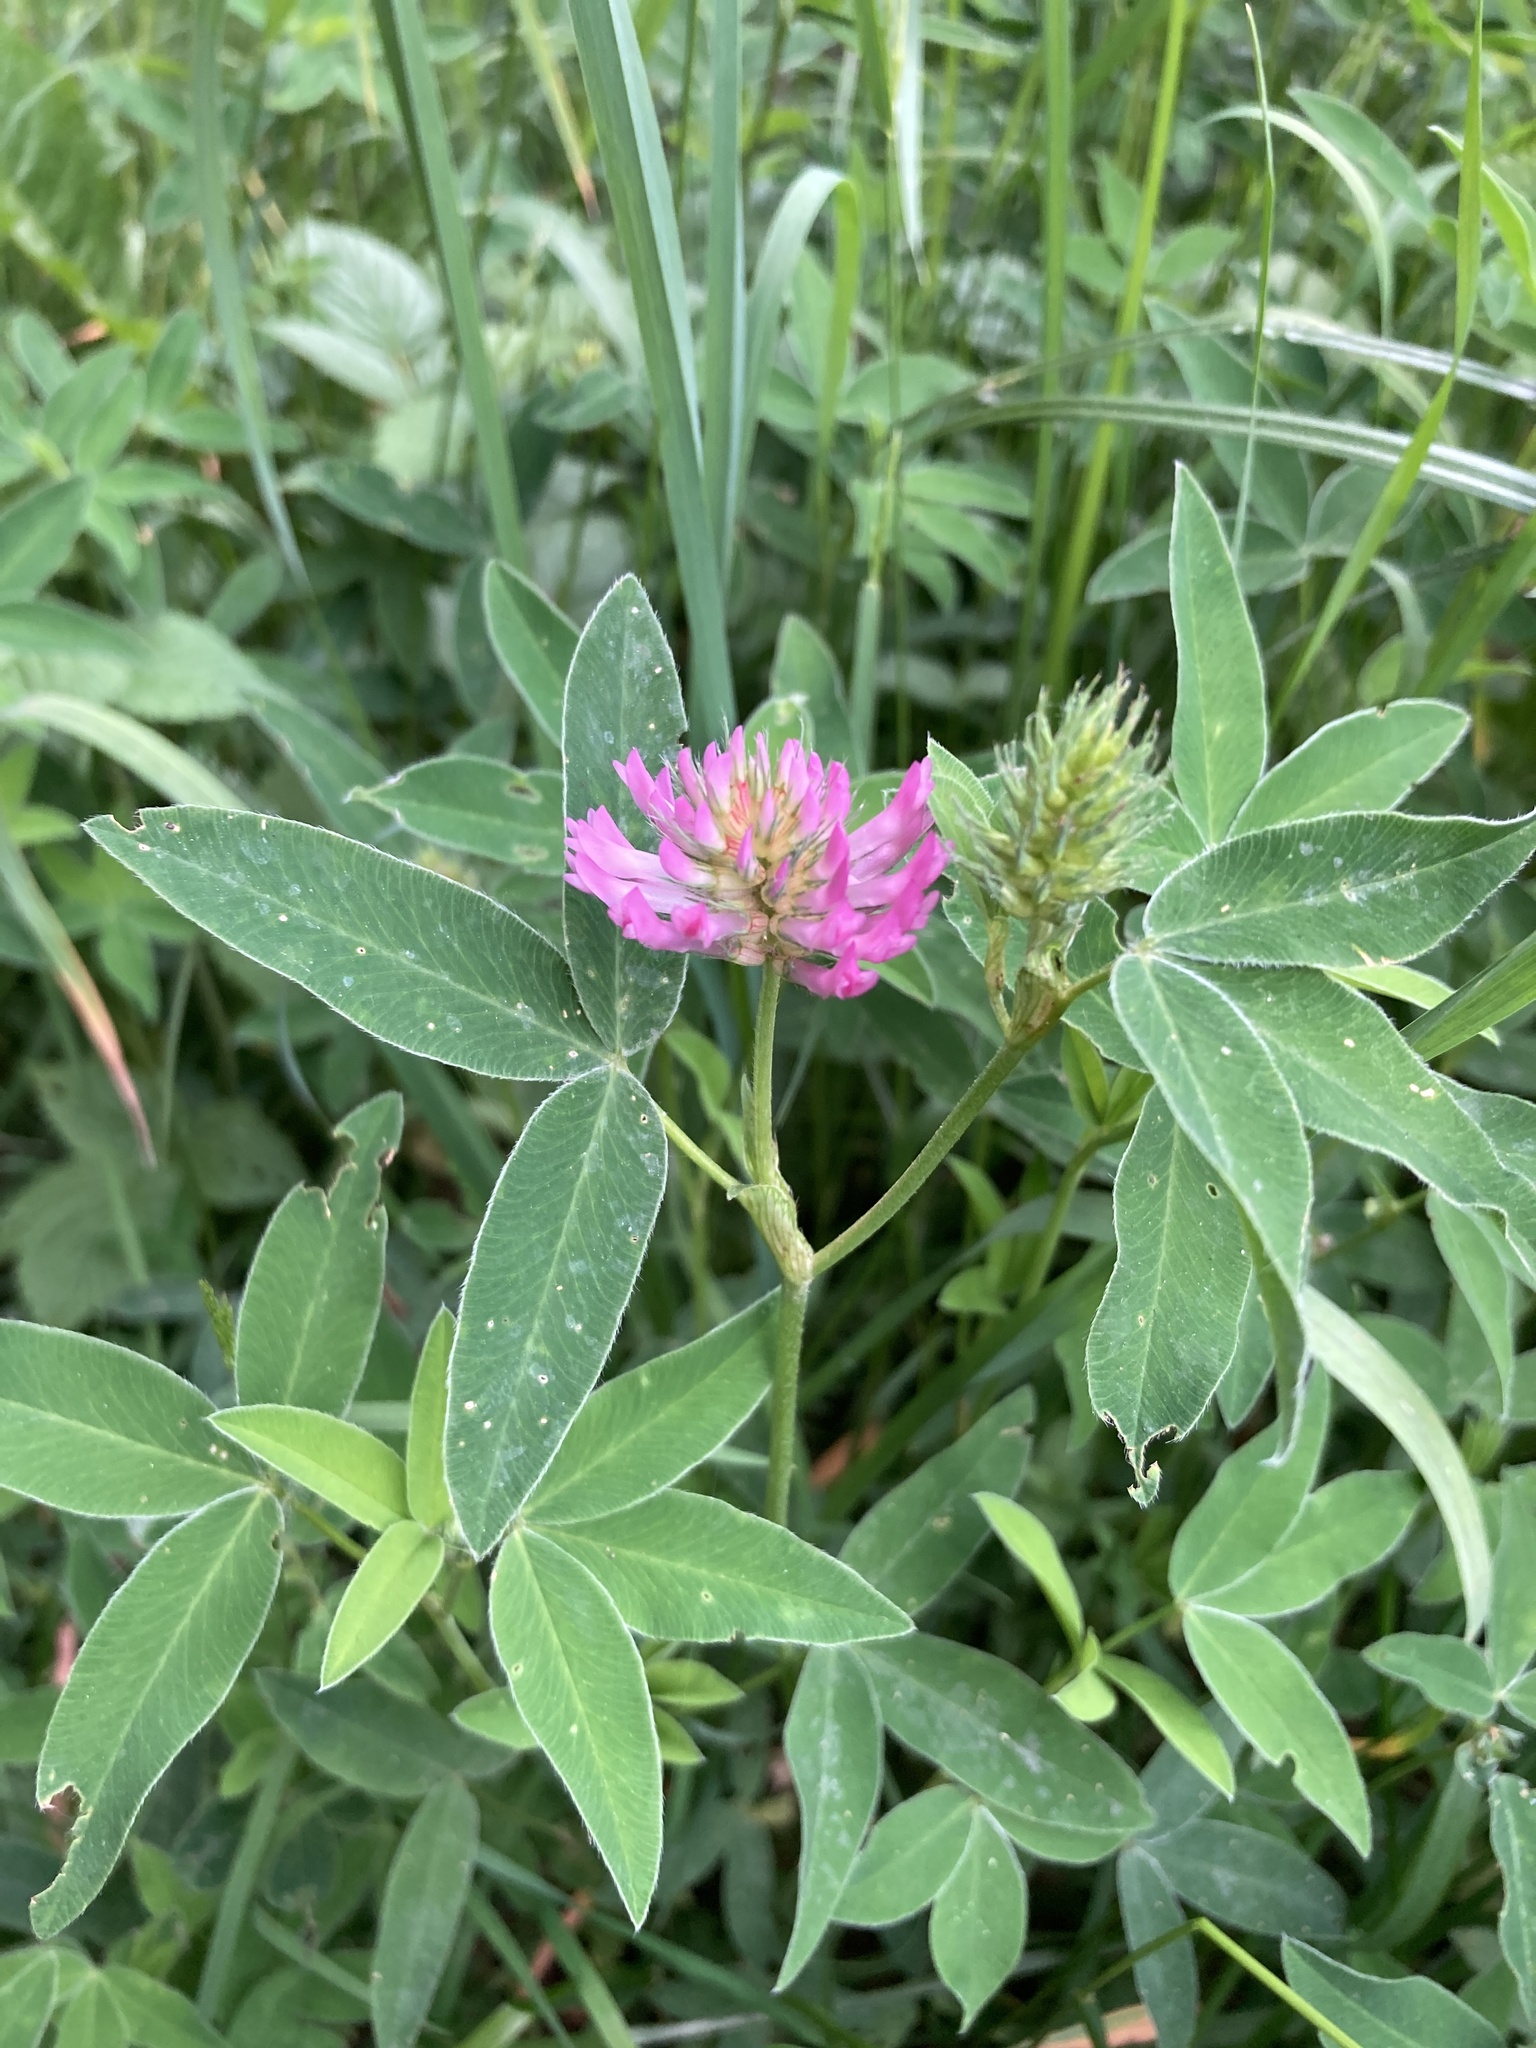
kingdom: Plantae
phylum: Tracheophyta
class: Magnoliopsida
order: Fabales
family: Fabaceae
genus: Trifolium
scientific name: Trifolium medium
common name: Zigzag clover
